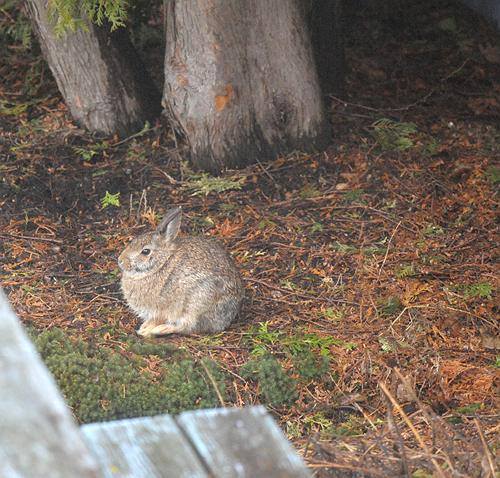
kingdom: Animalia
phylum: Chordata
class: Mammalia
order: Lagomorpha
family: Leporidae
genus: Sylvilagus
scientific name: Sylvilagus floridanus
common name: Eastern cottontail
